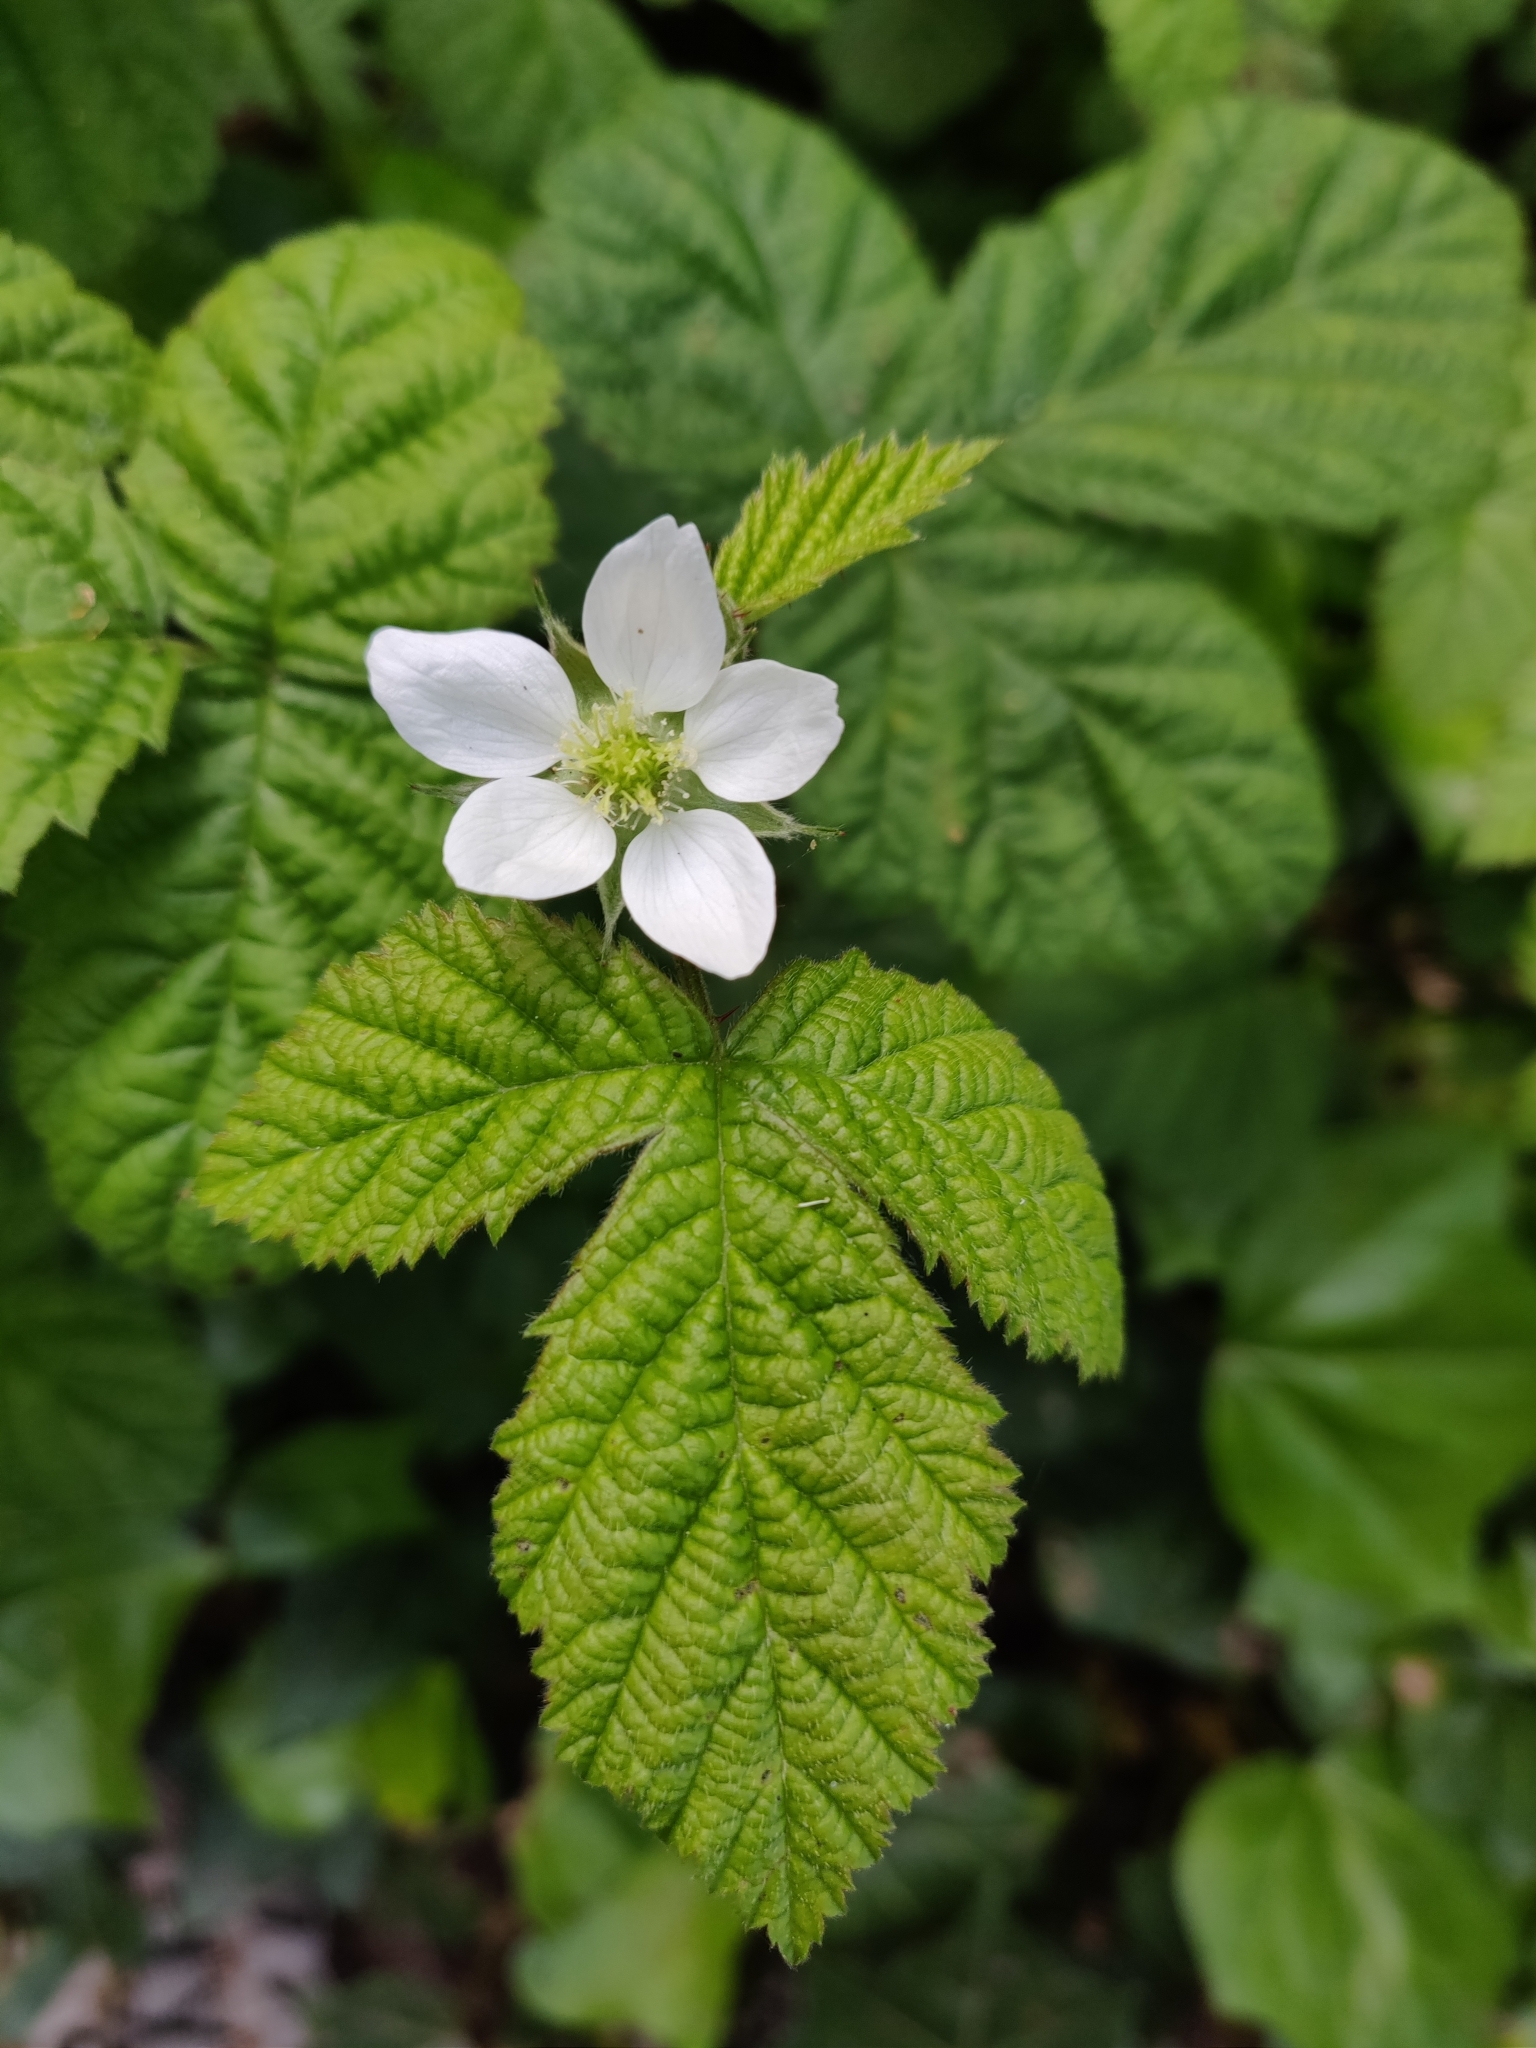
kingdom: Plantae
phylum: Tracheophyta
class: Magnoliopsida
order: Rosales
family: Rosaceae
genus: Rubus
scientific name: Rubus ursinus
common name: Pacific blackberry
